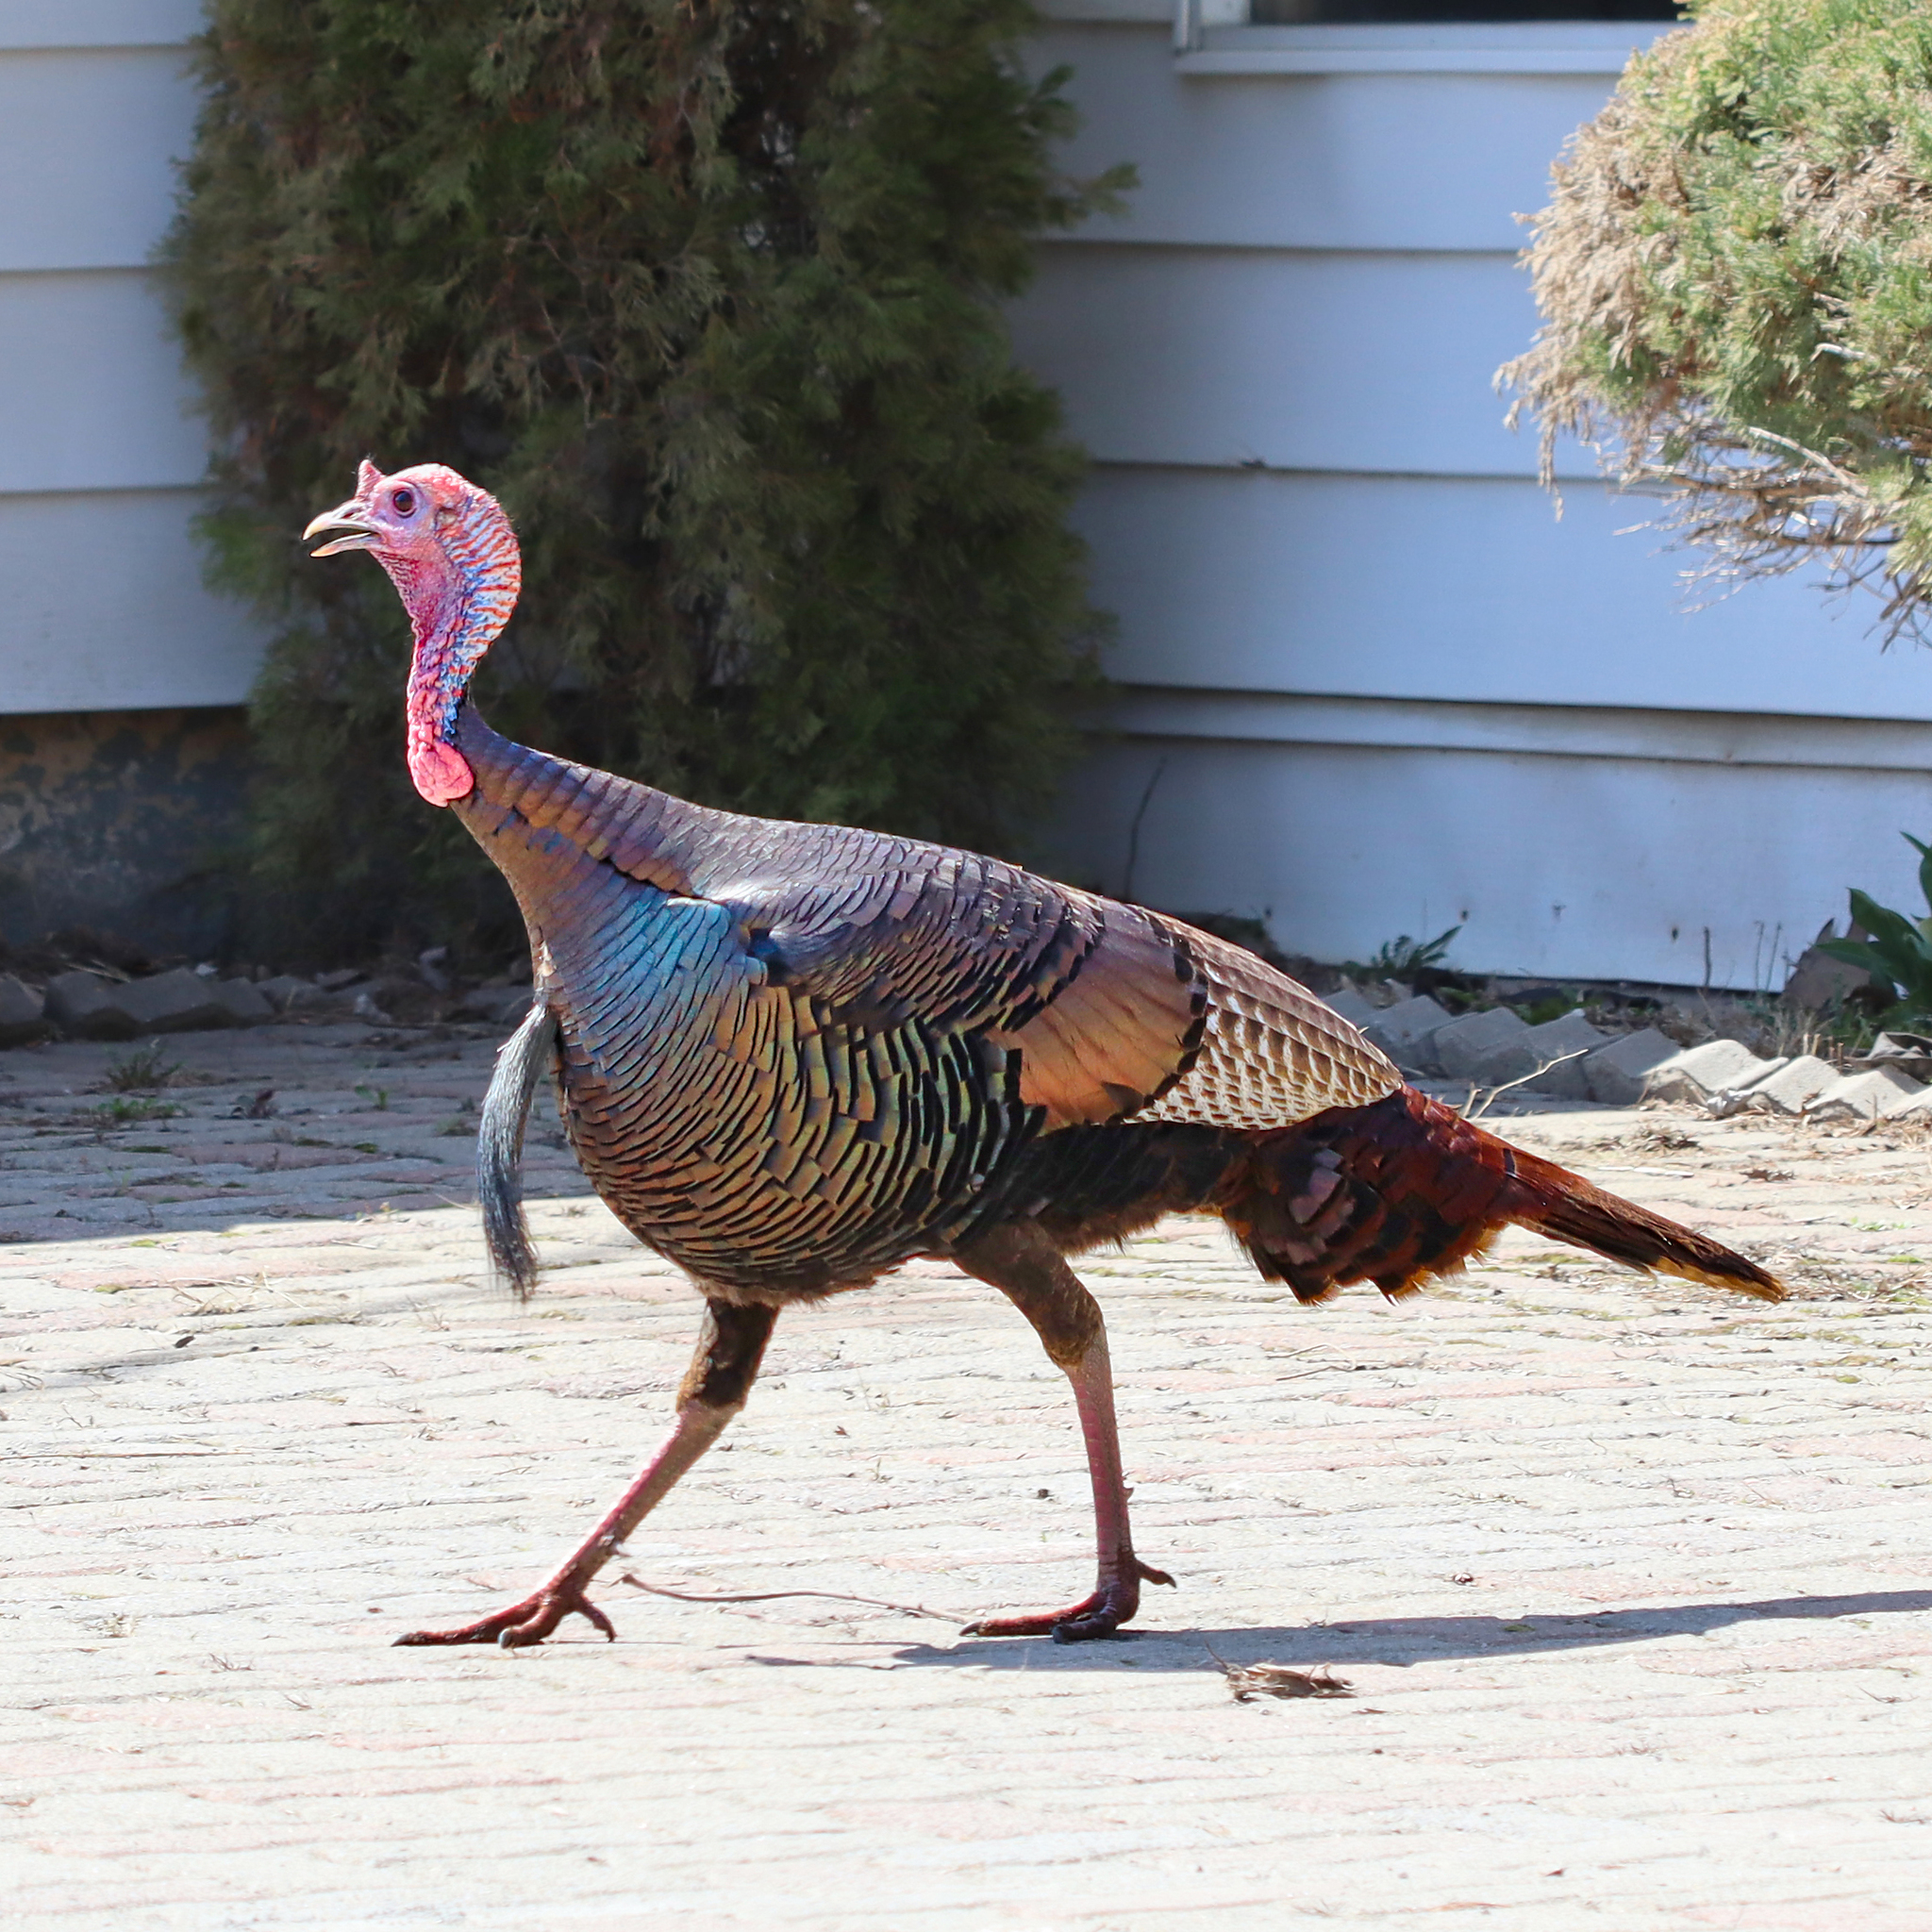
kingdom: Animalia
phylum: Chordata
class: Aves
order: Galliformes
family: Phasianidae
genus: Meleagris
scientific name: Meleagris gallopavo
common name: Wild turkey
